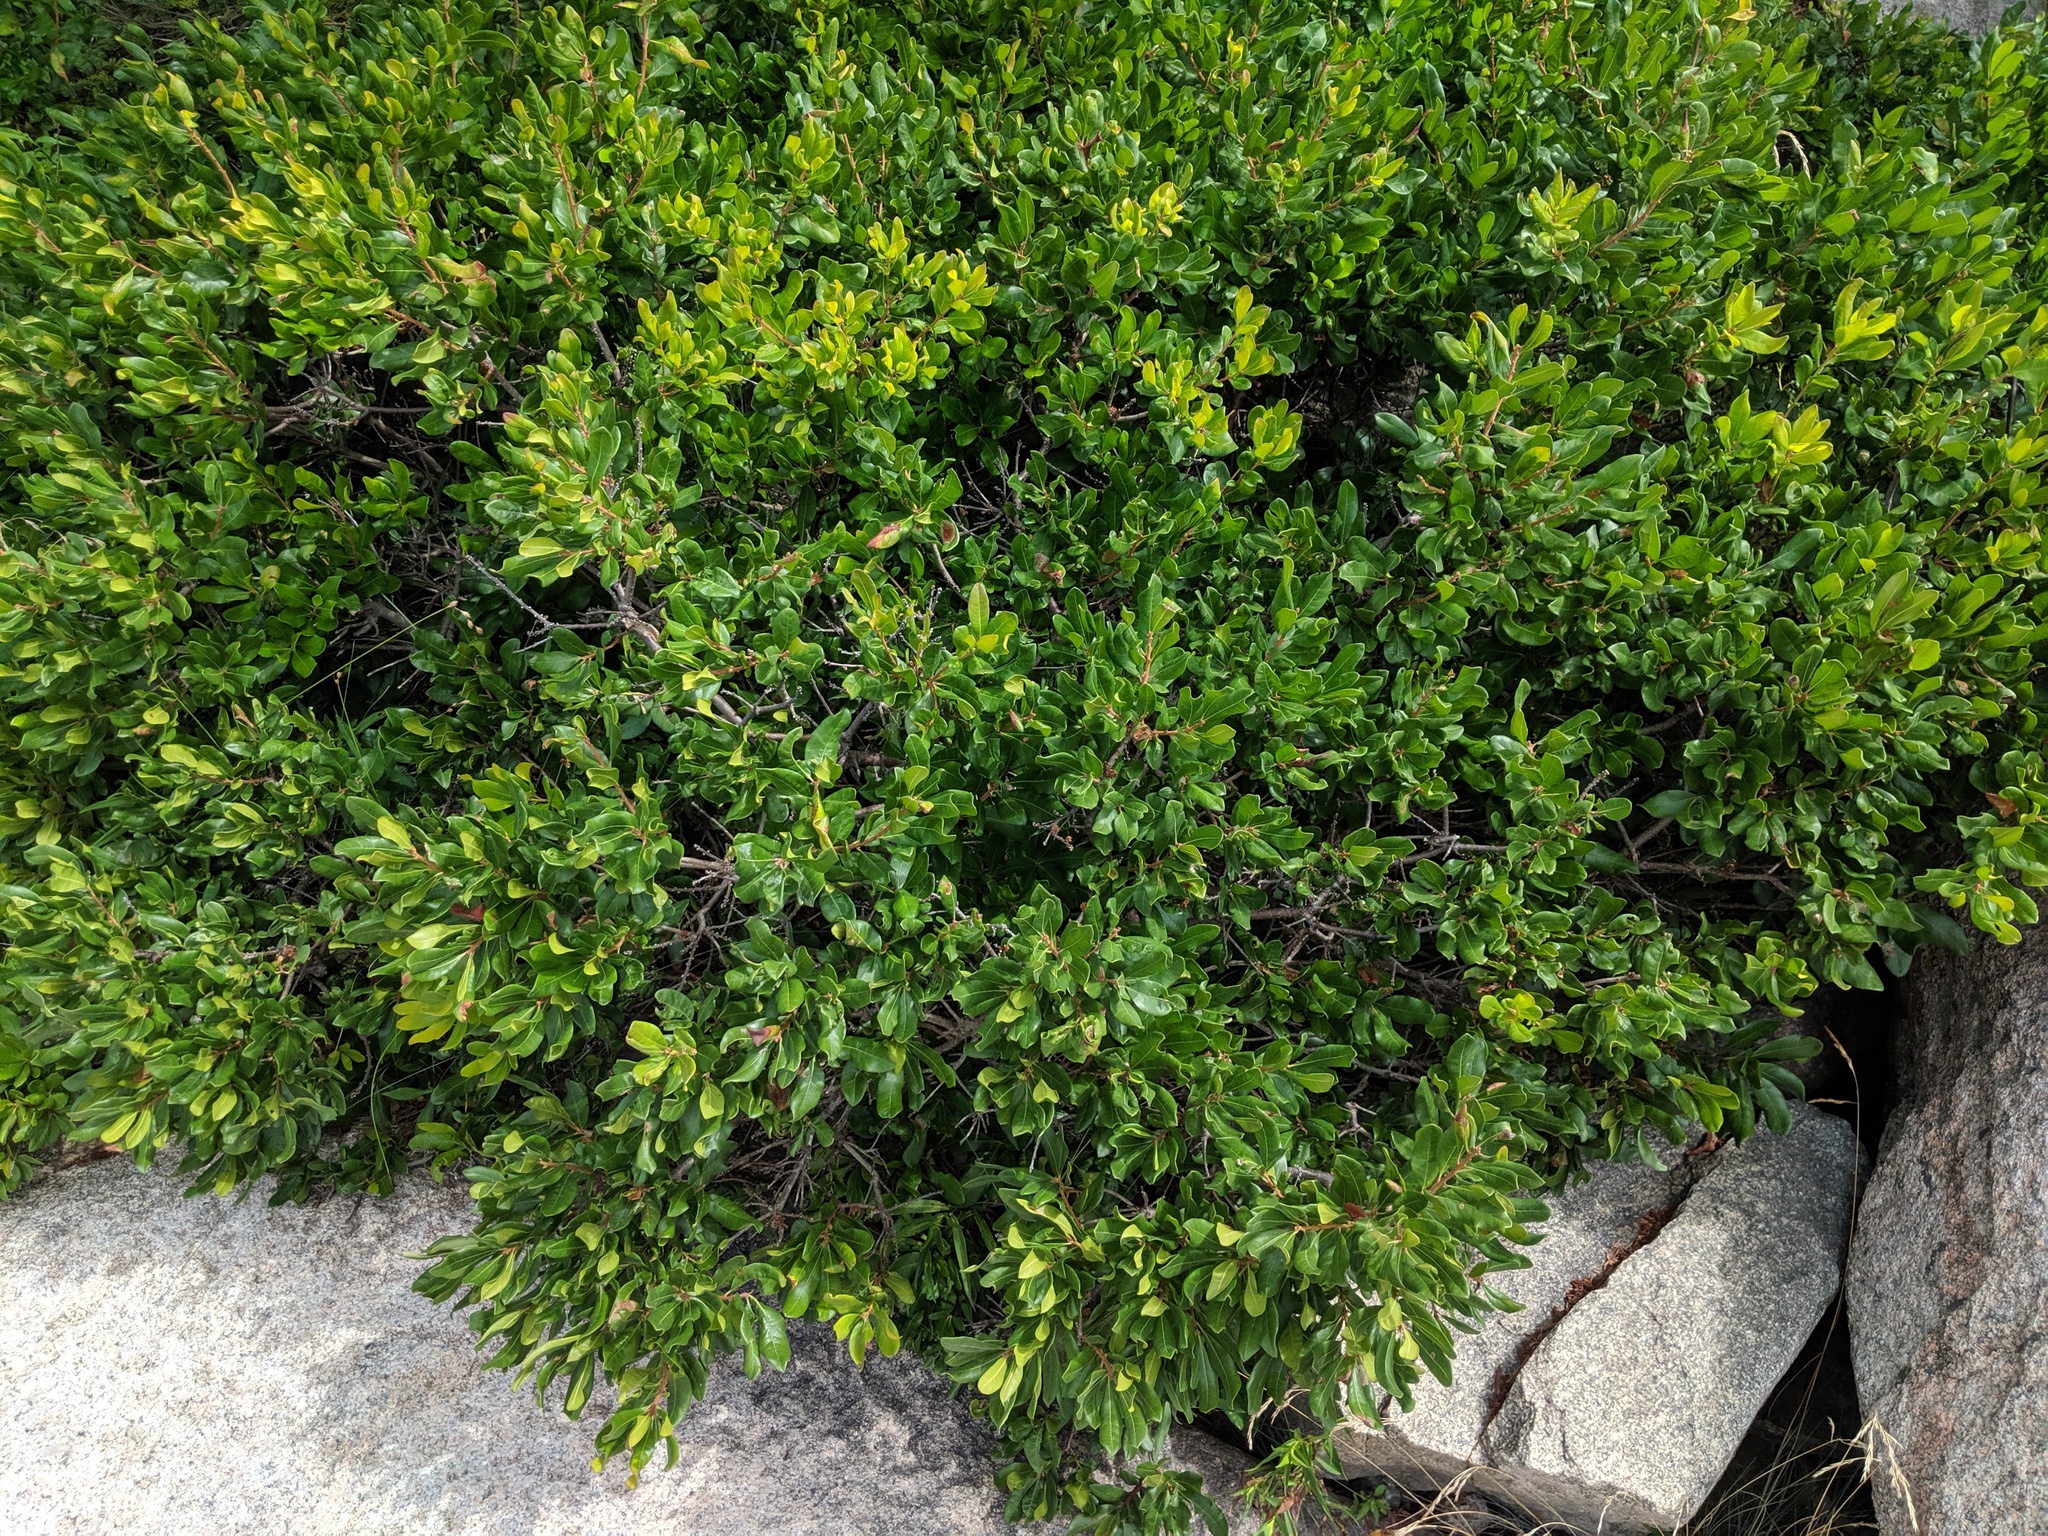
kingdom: Plantae
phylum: Tracheophyta
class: Magnoliopsida
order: Fagales
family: Myricaceae
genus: Morella
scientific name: Morella pensylvanica
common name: Northern bayberry
